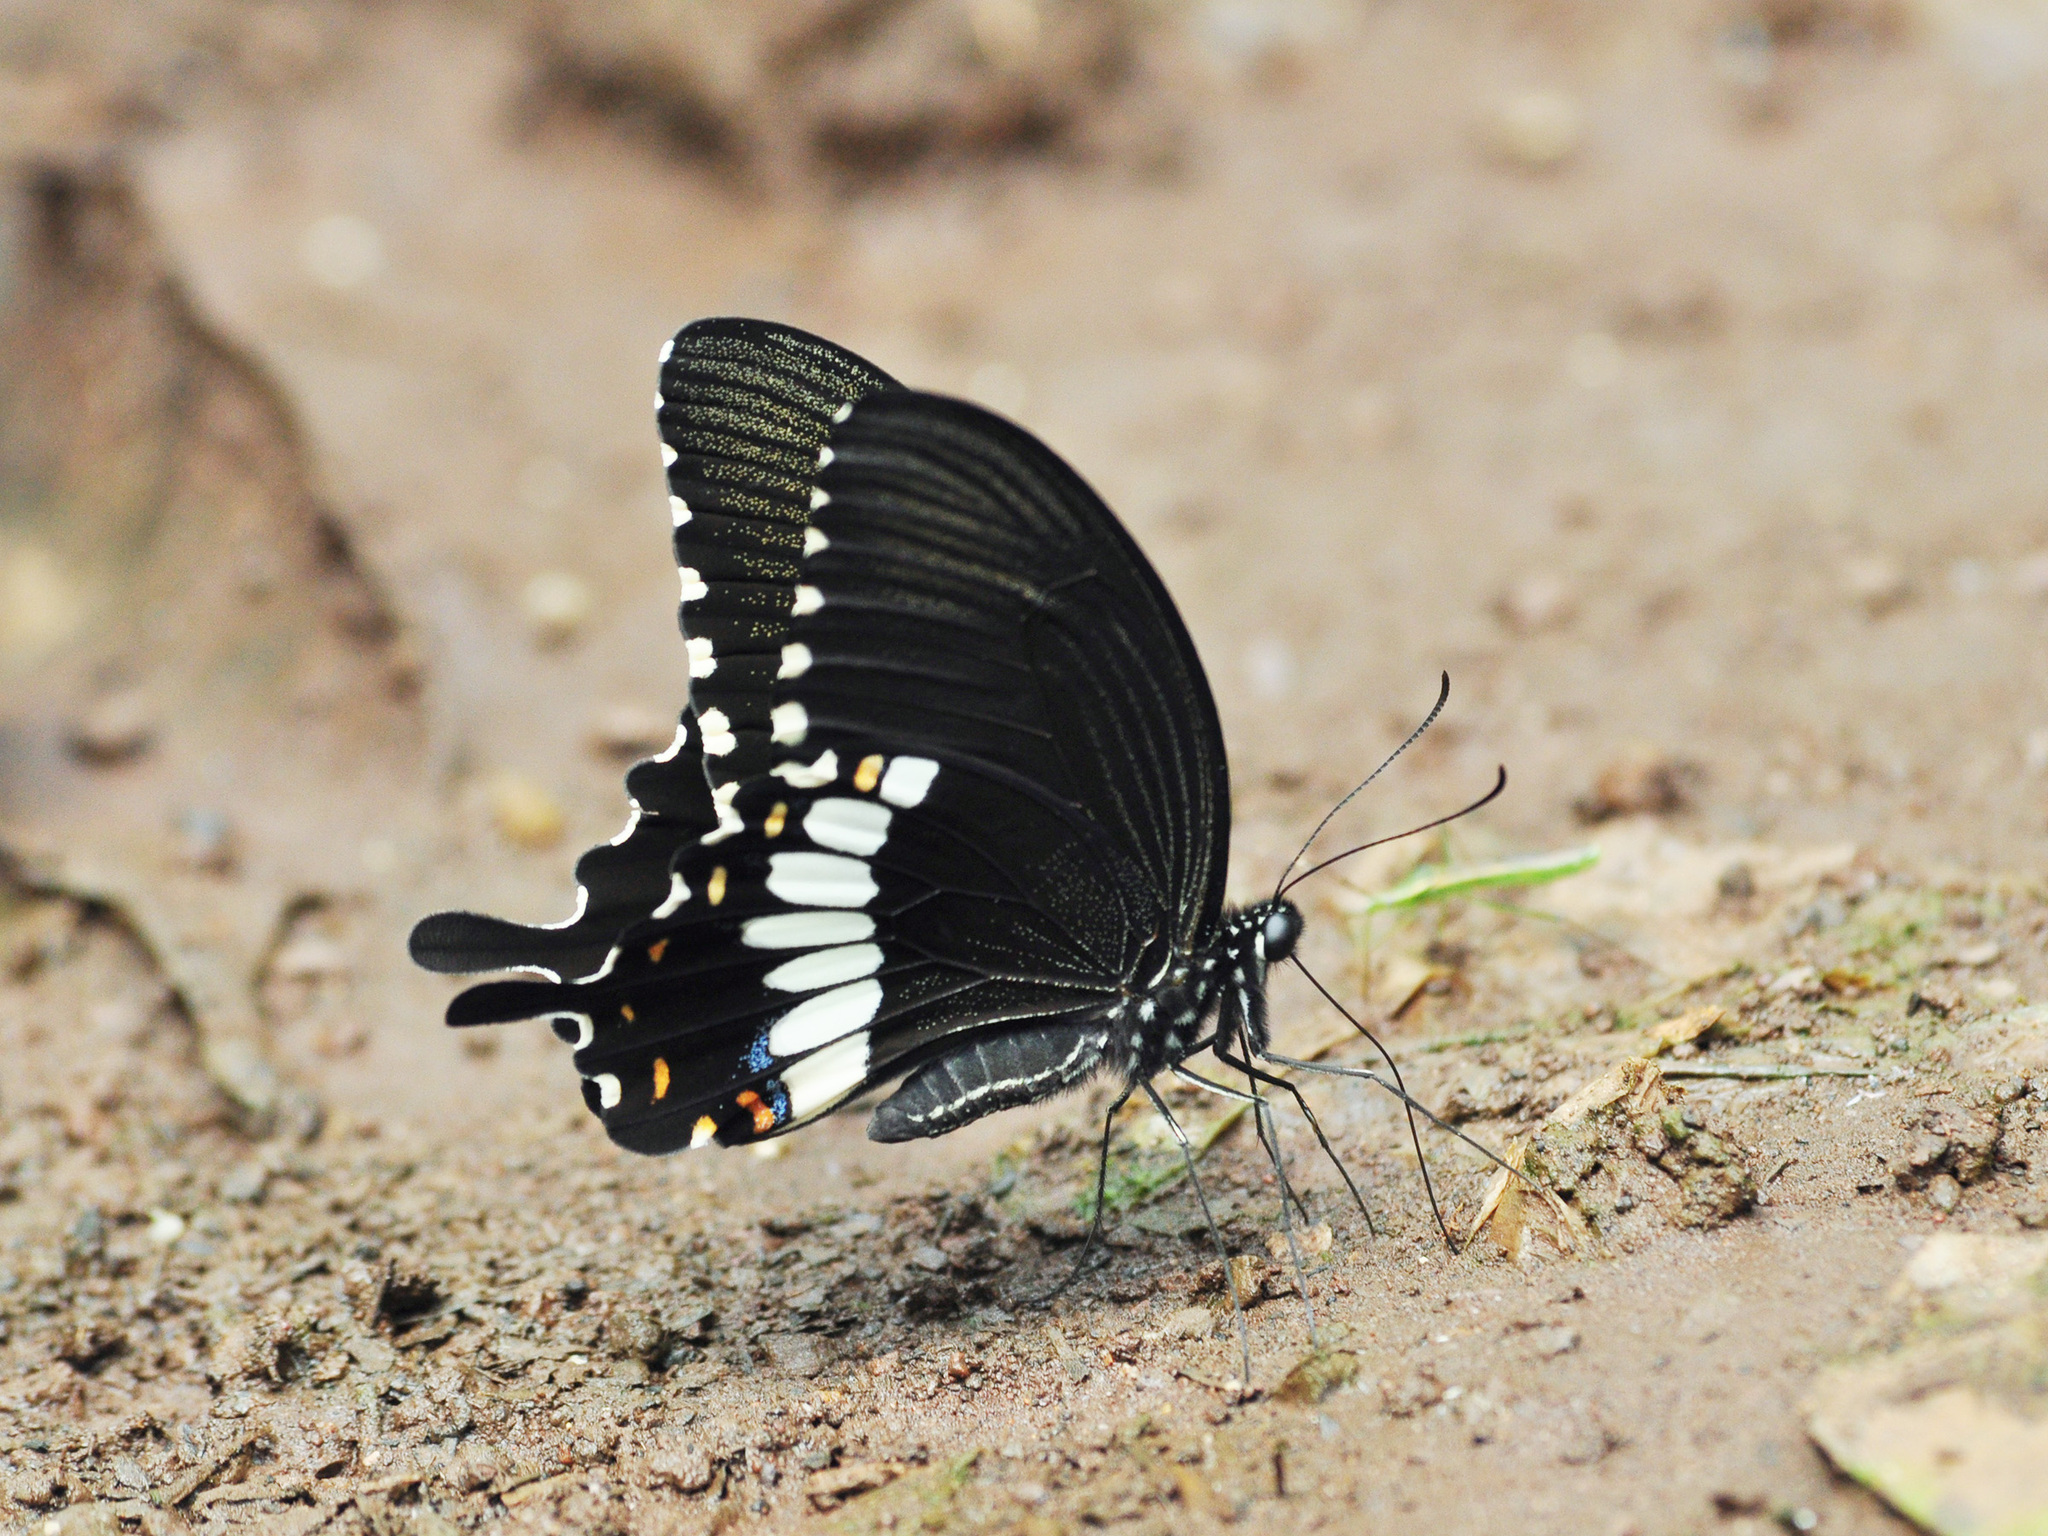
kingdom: Animalia
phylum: Arthropoda
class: Insecta
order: Lepidoptera
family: Papilionidae
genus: Papilio
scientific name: Papilio polytes
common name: Common mormon
